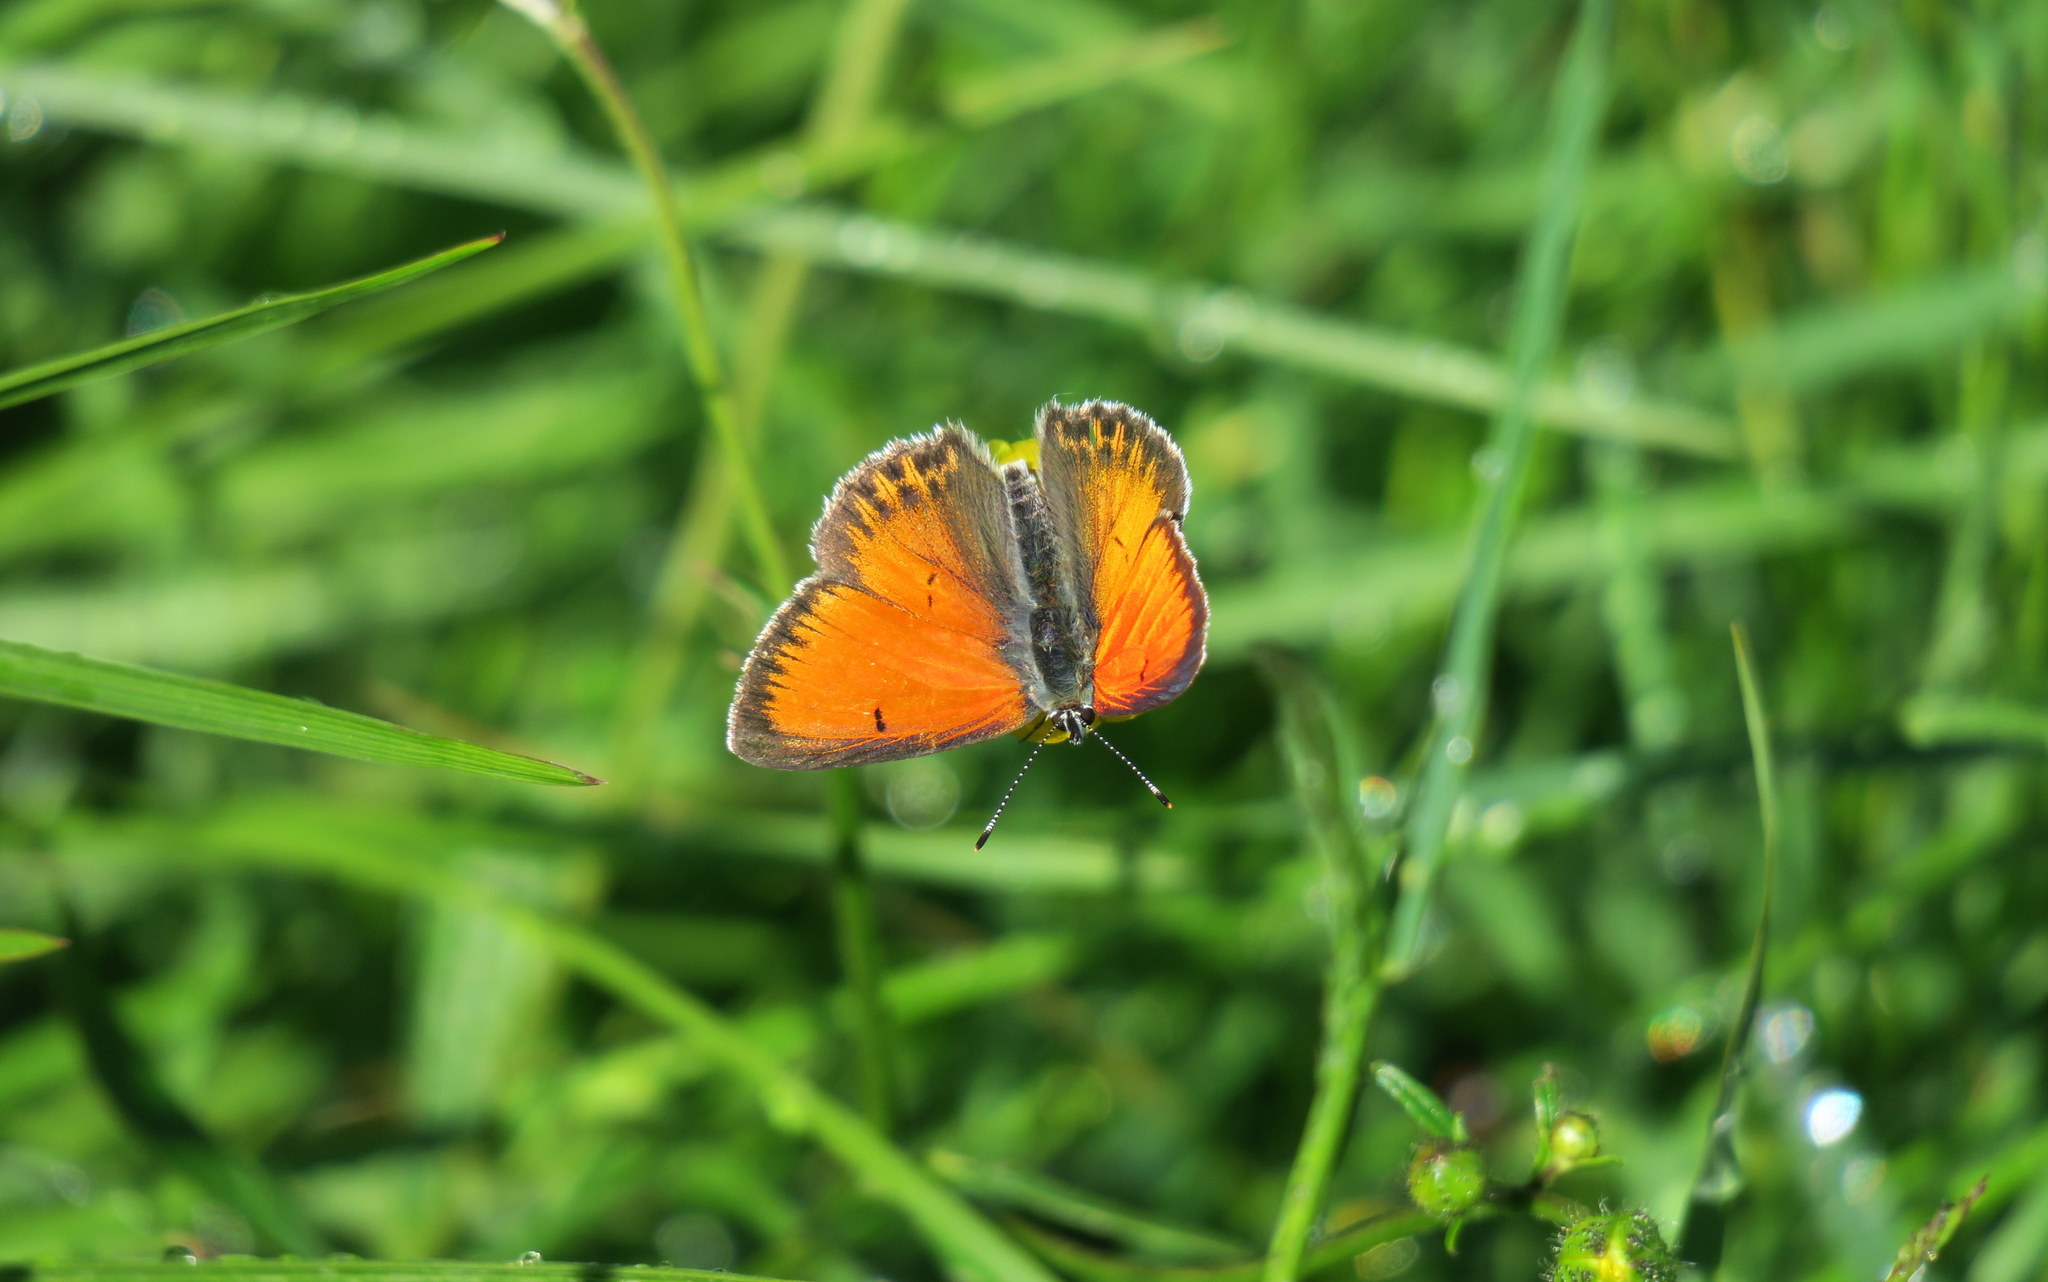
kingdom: Animalia
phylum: Arthropoda
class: Insecta
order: Lepidoptera
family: Lycaenidae
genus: Palaeochrysophanus
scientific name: Palaeochrysophanus candens
